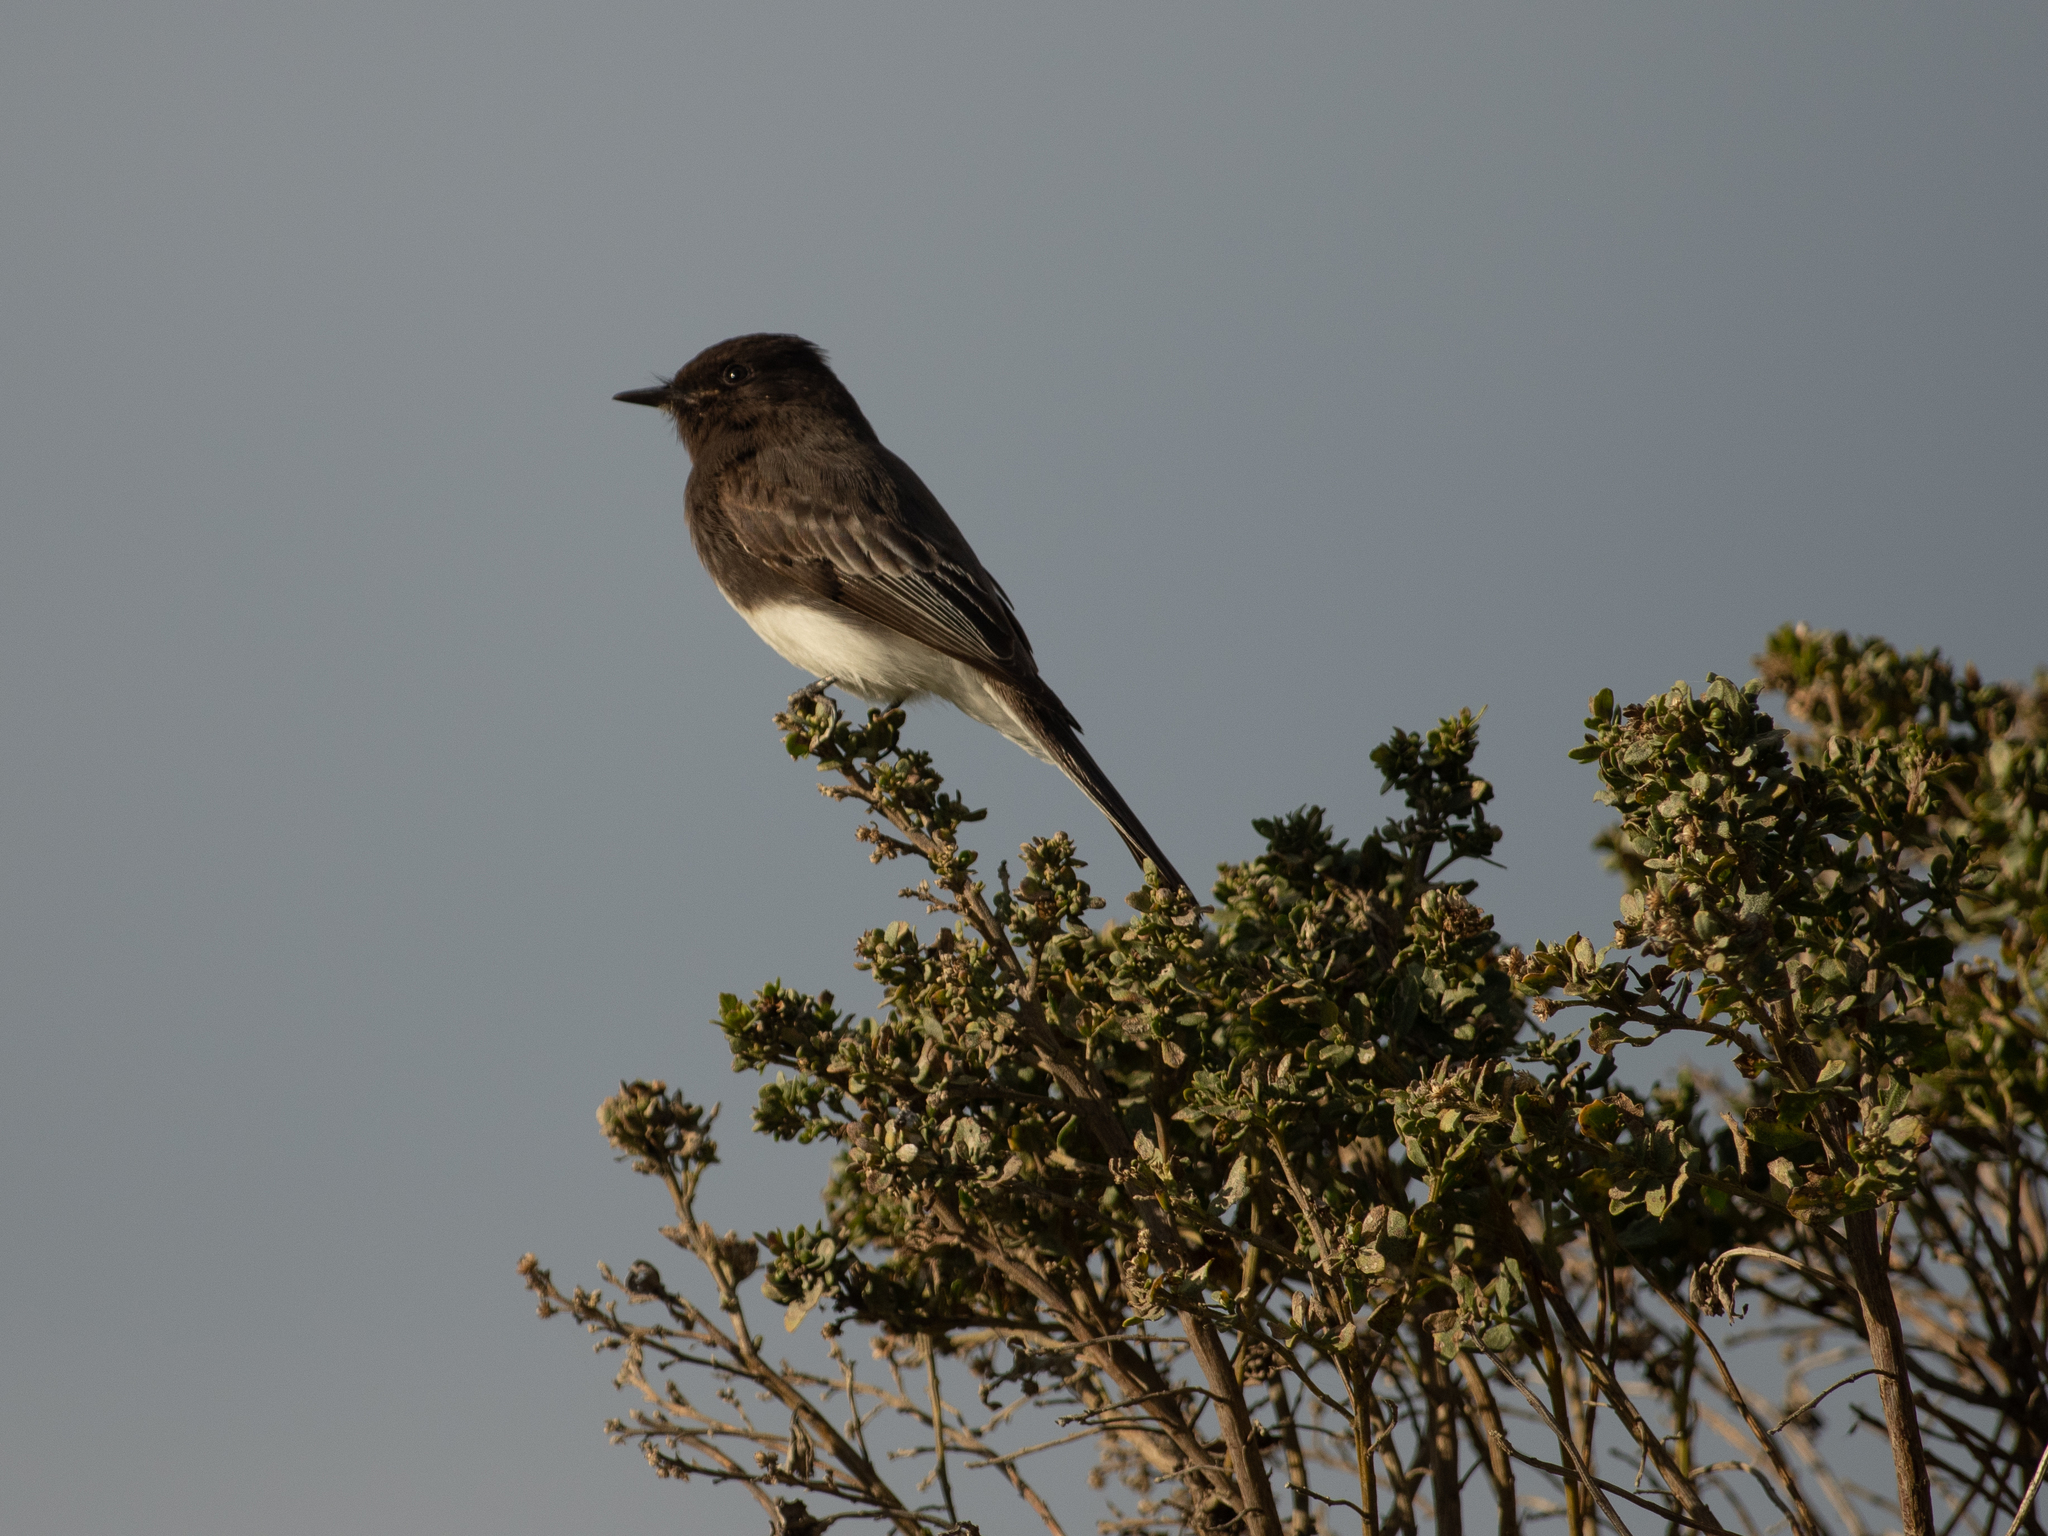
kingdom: Animalia
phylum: Chordata
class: Aves
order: Passeriformes
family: Tyrannidae
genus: Sayornis
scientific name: Sayornis nigricans
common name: Black phoebe
